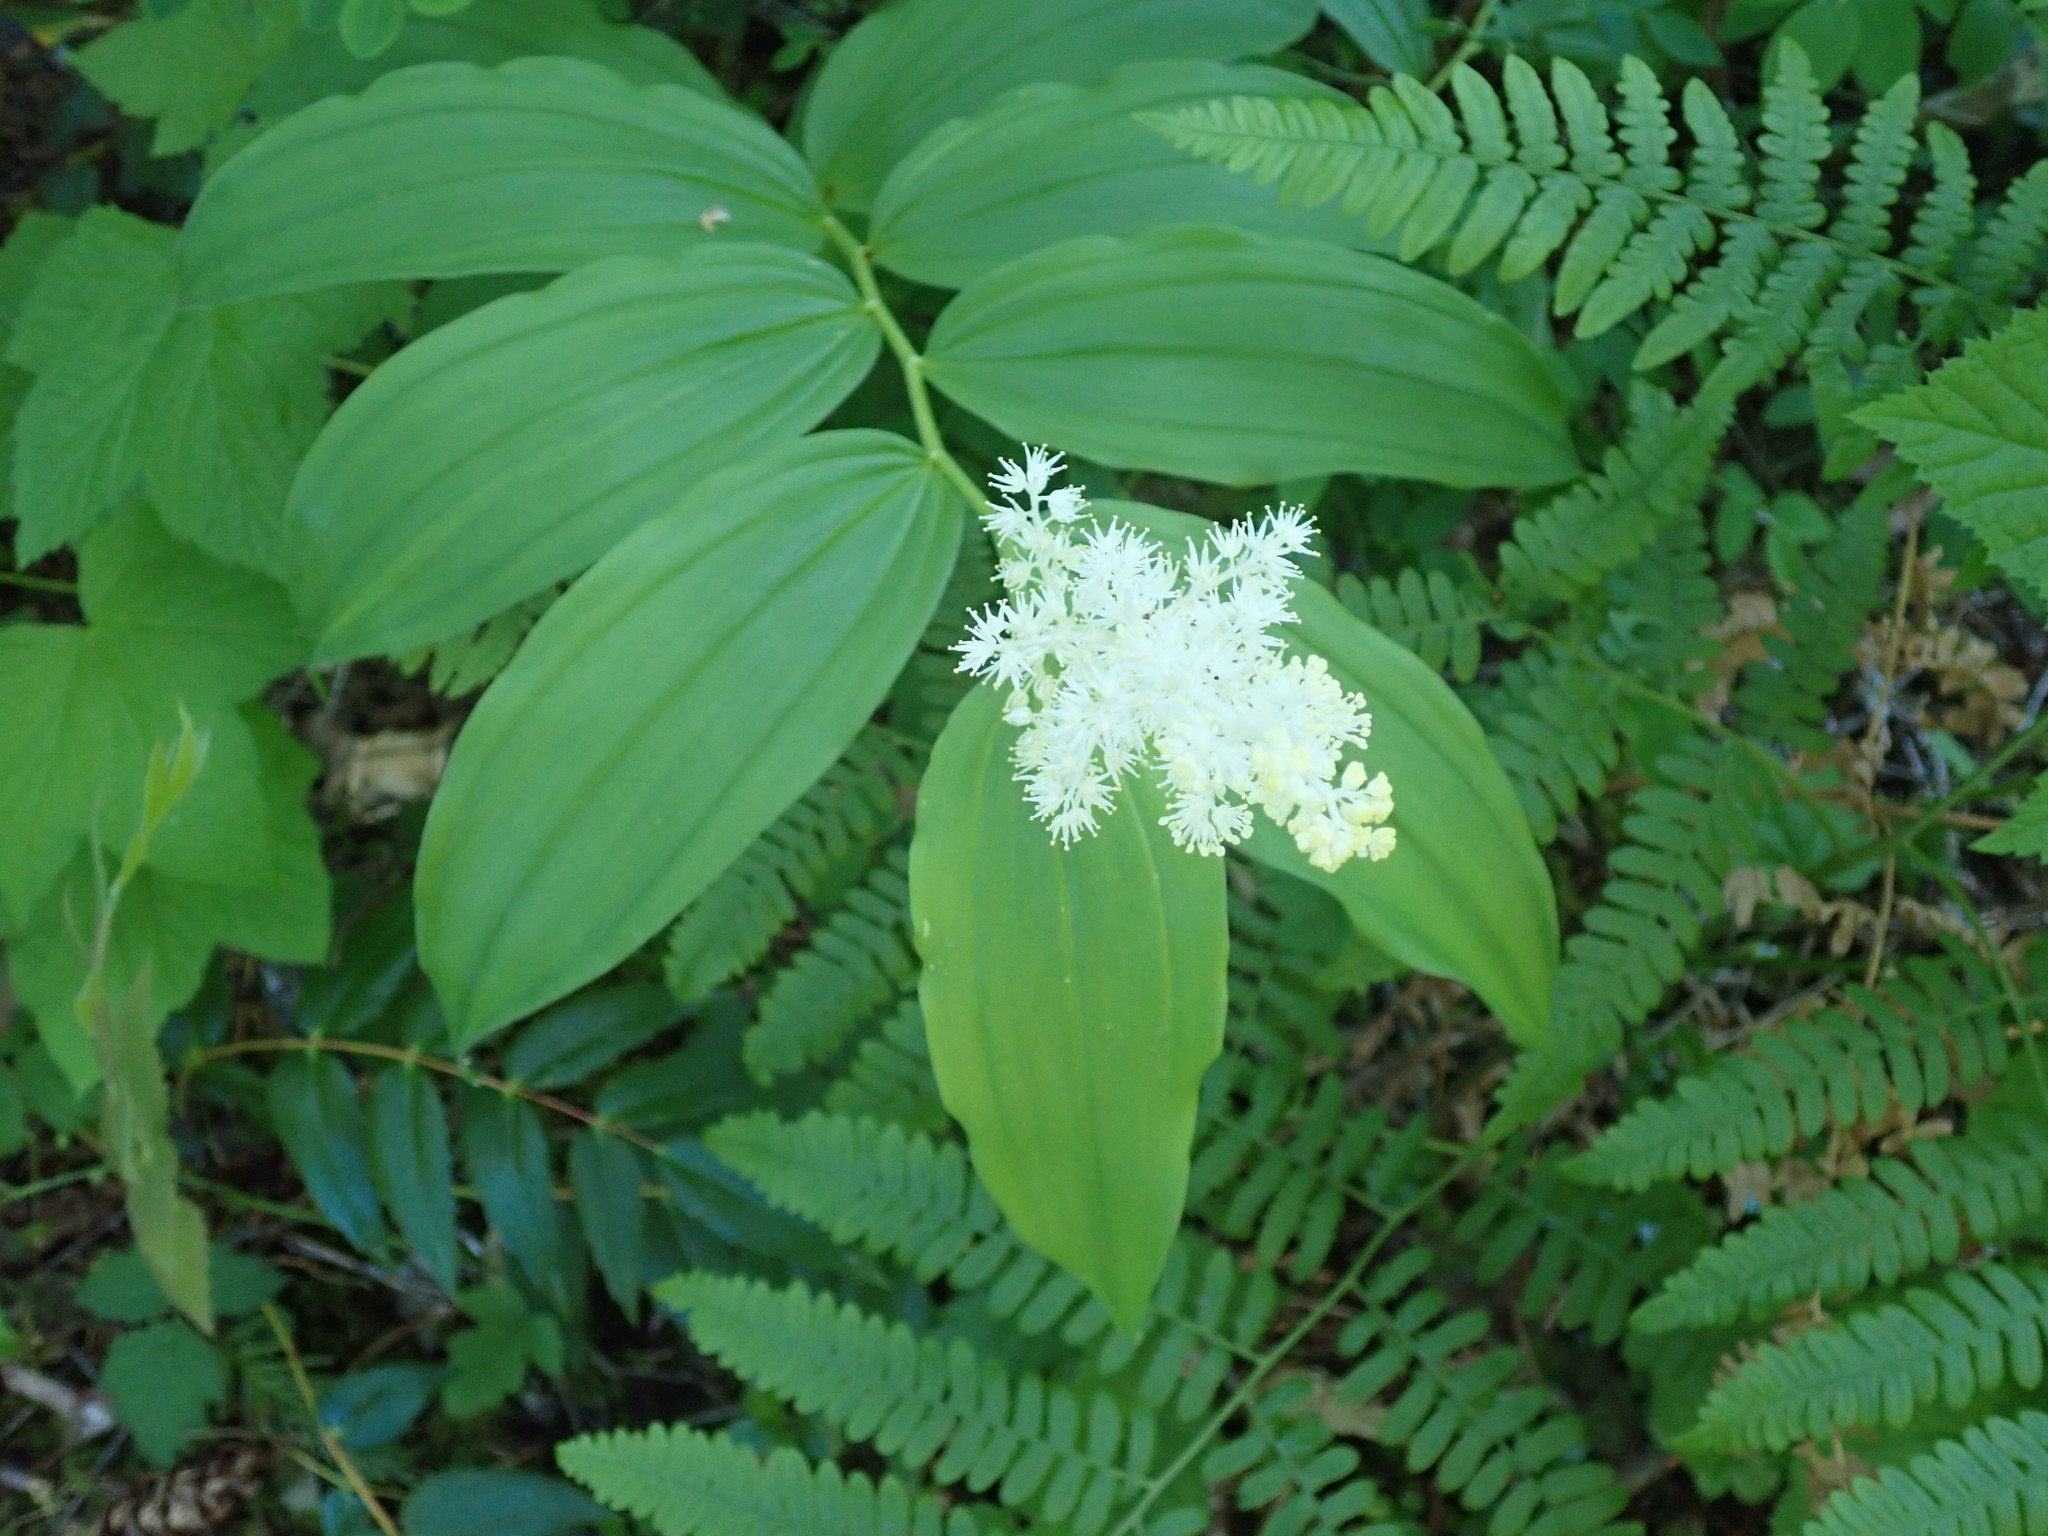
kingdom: Plantae
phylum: Tracheophyta
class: Liliopsida
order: Asparagales
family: Asparagaceae
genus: Maianthemum
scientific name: Maianthemum racemosum
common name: False spikenard
